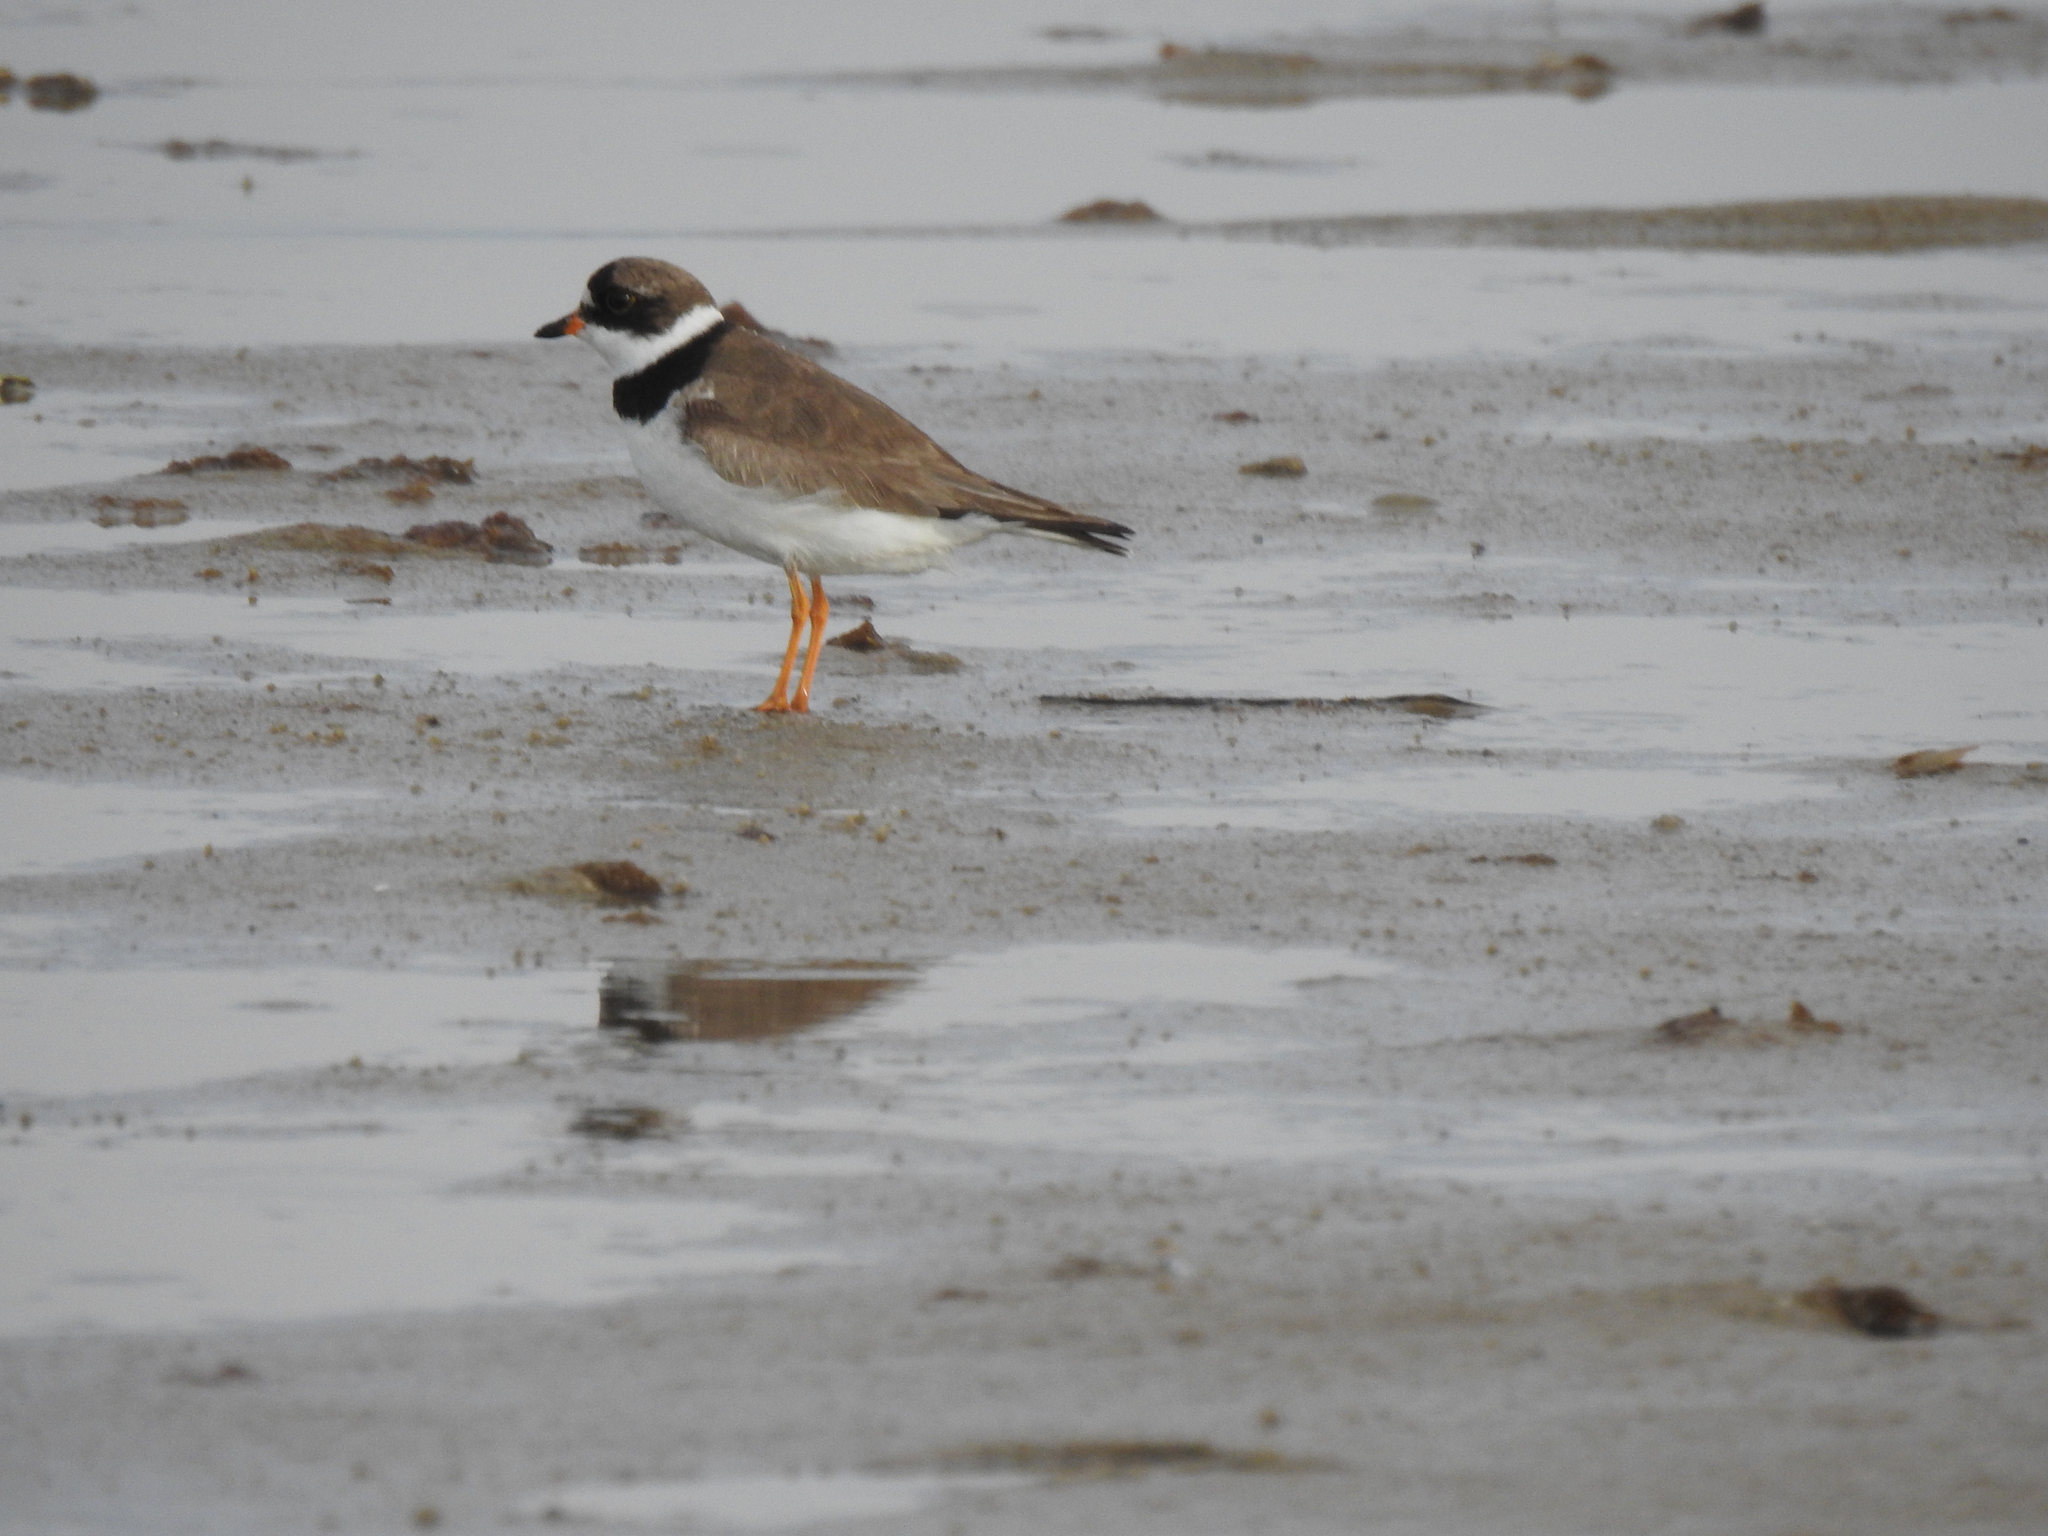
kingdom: Animalia
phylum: Chordata
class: Aves
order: Charadriiformes
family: Charadriidae
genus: Charadrius
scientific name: Charadrius semipalmatus
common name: Semipalmated plover
